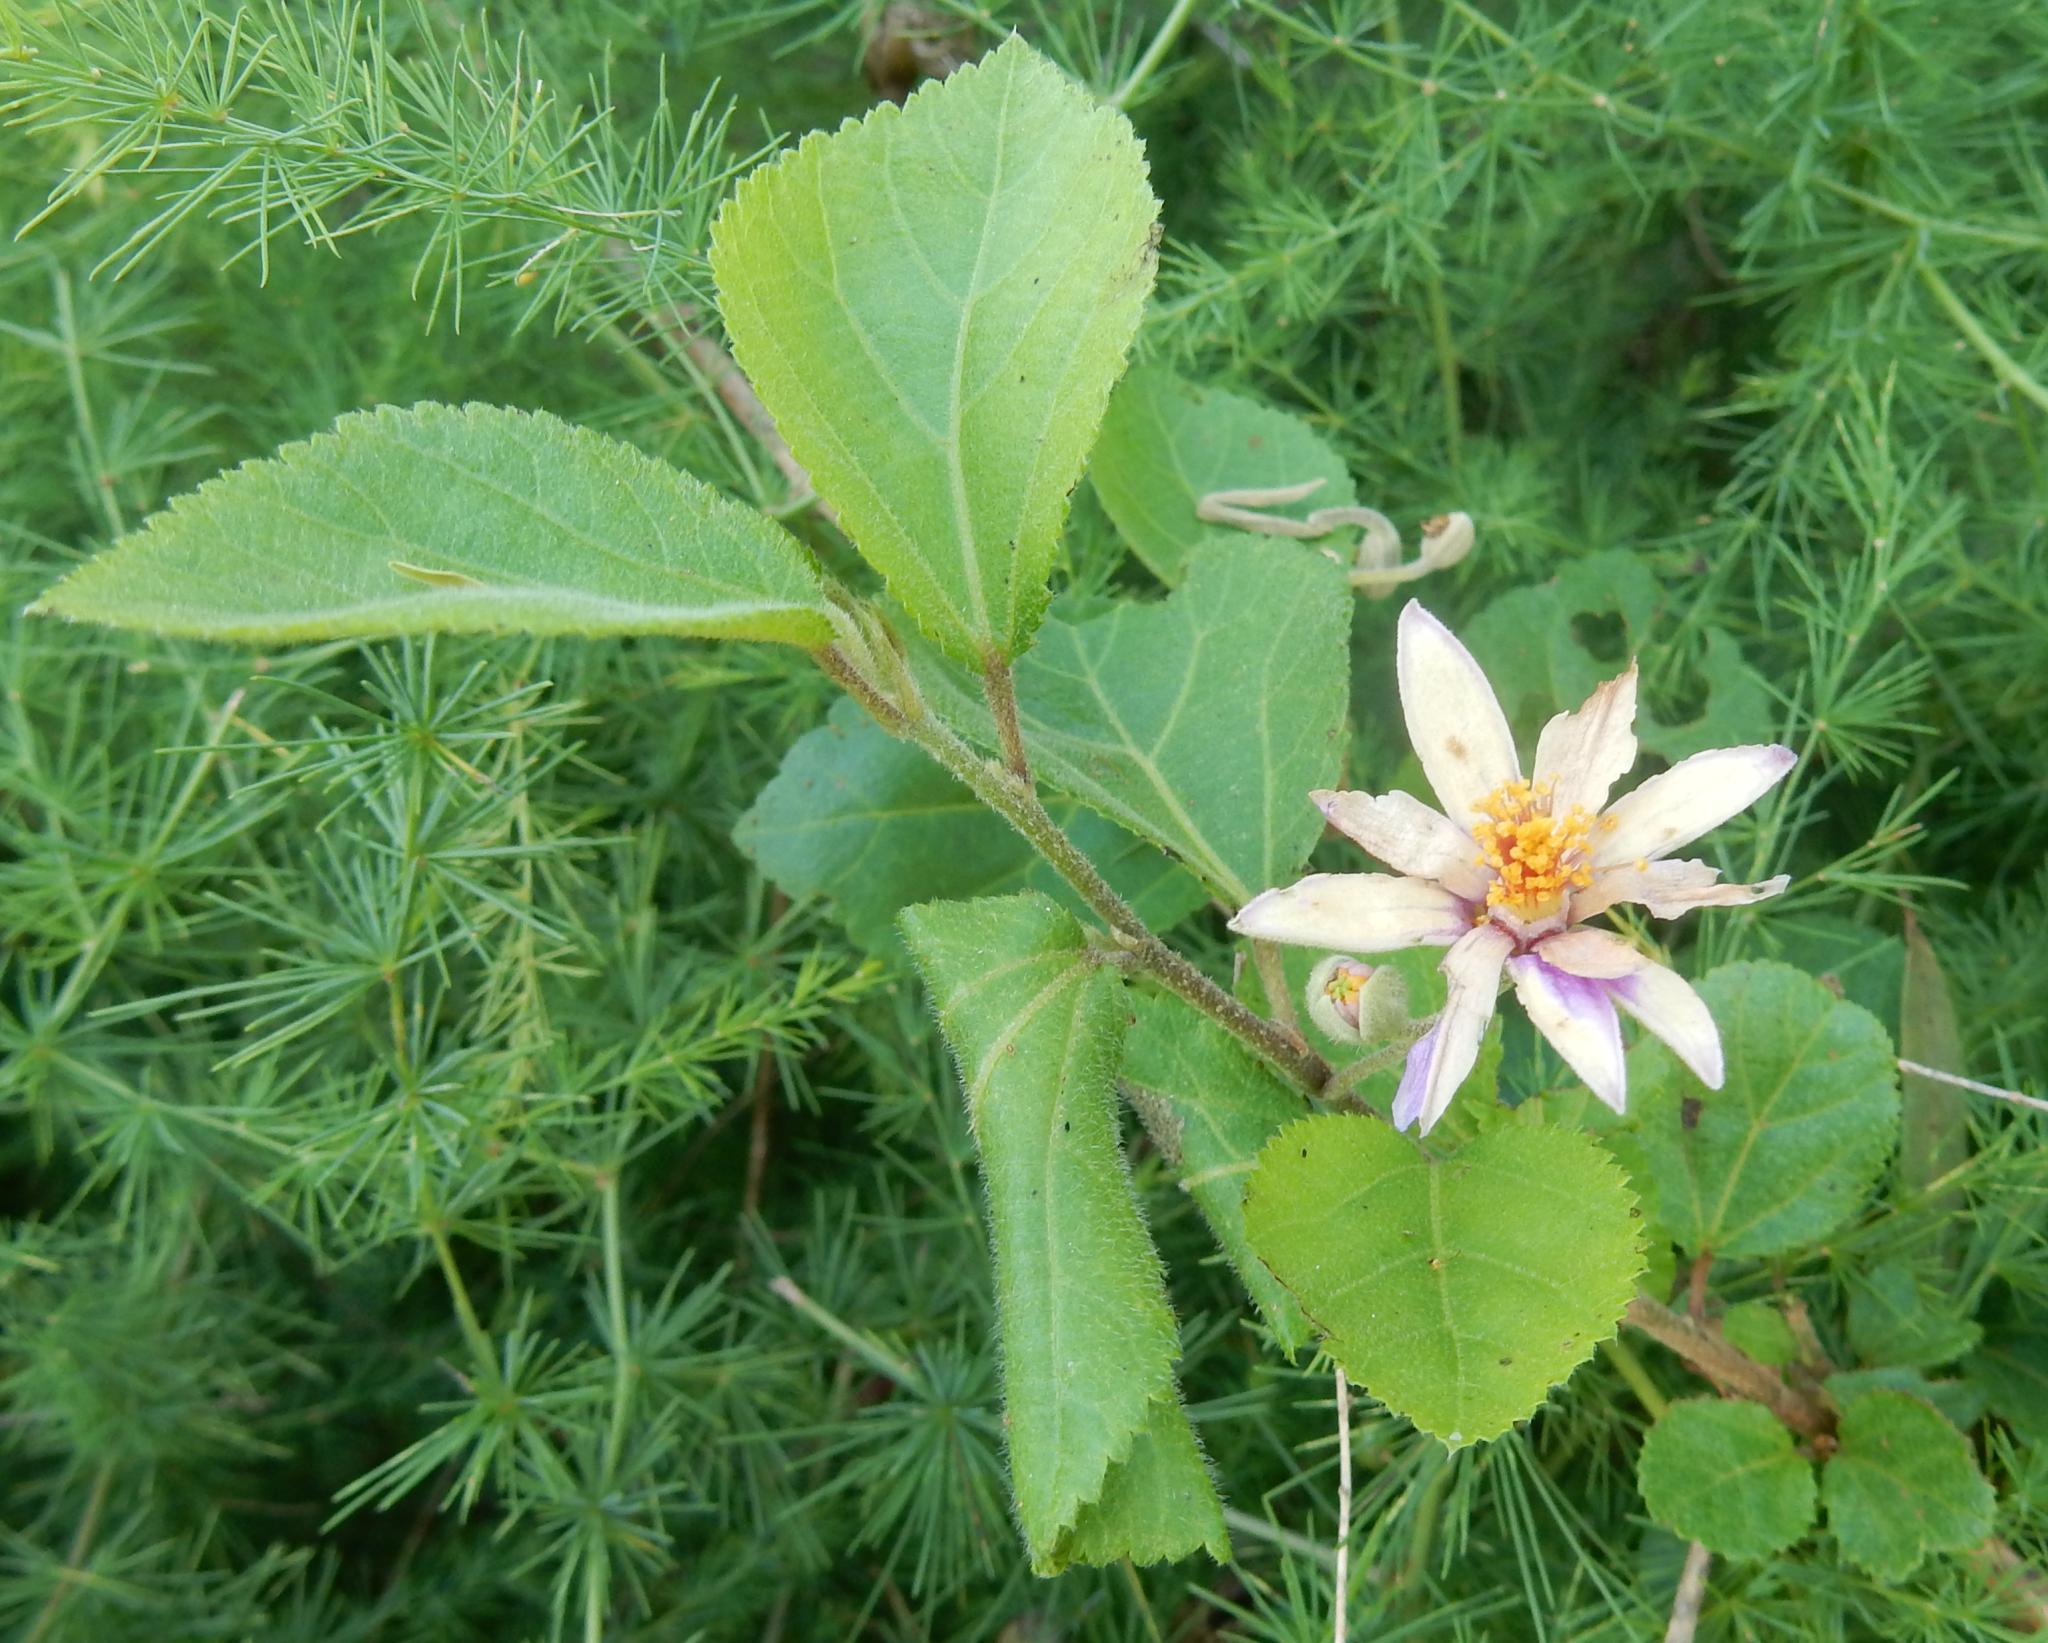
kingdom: Plantae
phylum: Tracheophyta
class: Magnoliopsida
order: Malvales
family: Malvaceae
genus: Grewia
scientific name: Grewia occidentalis
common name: Crossberry
